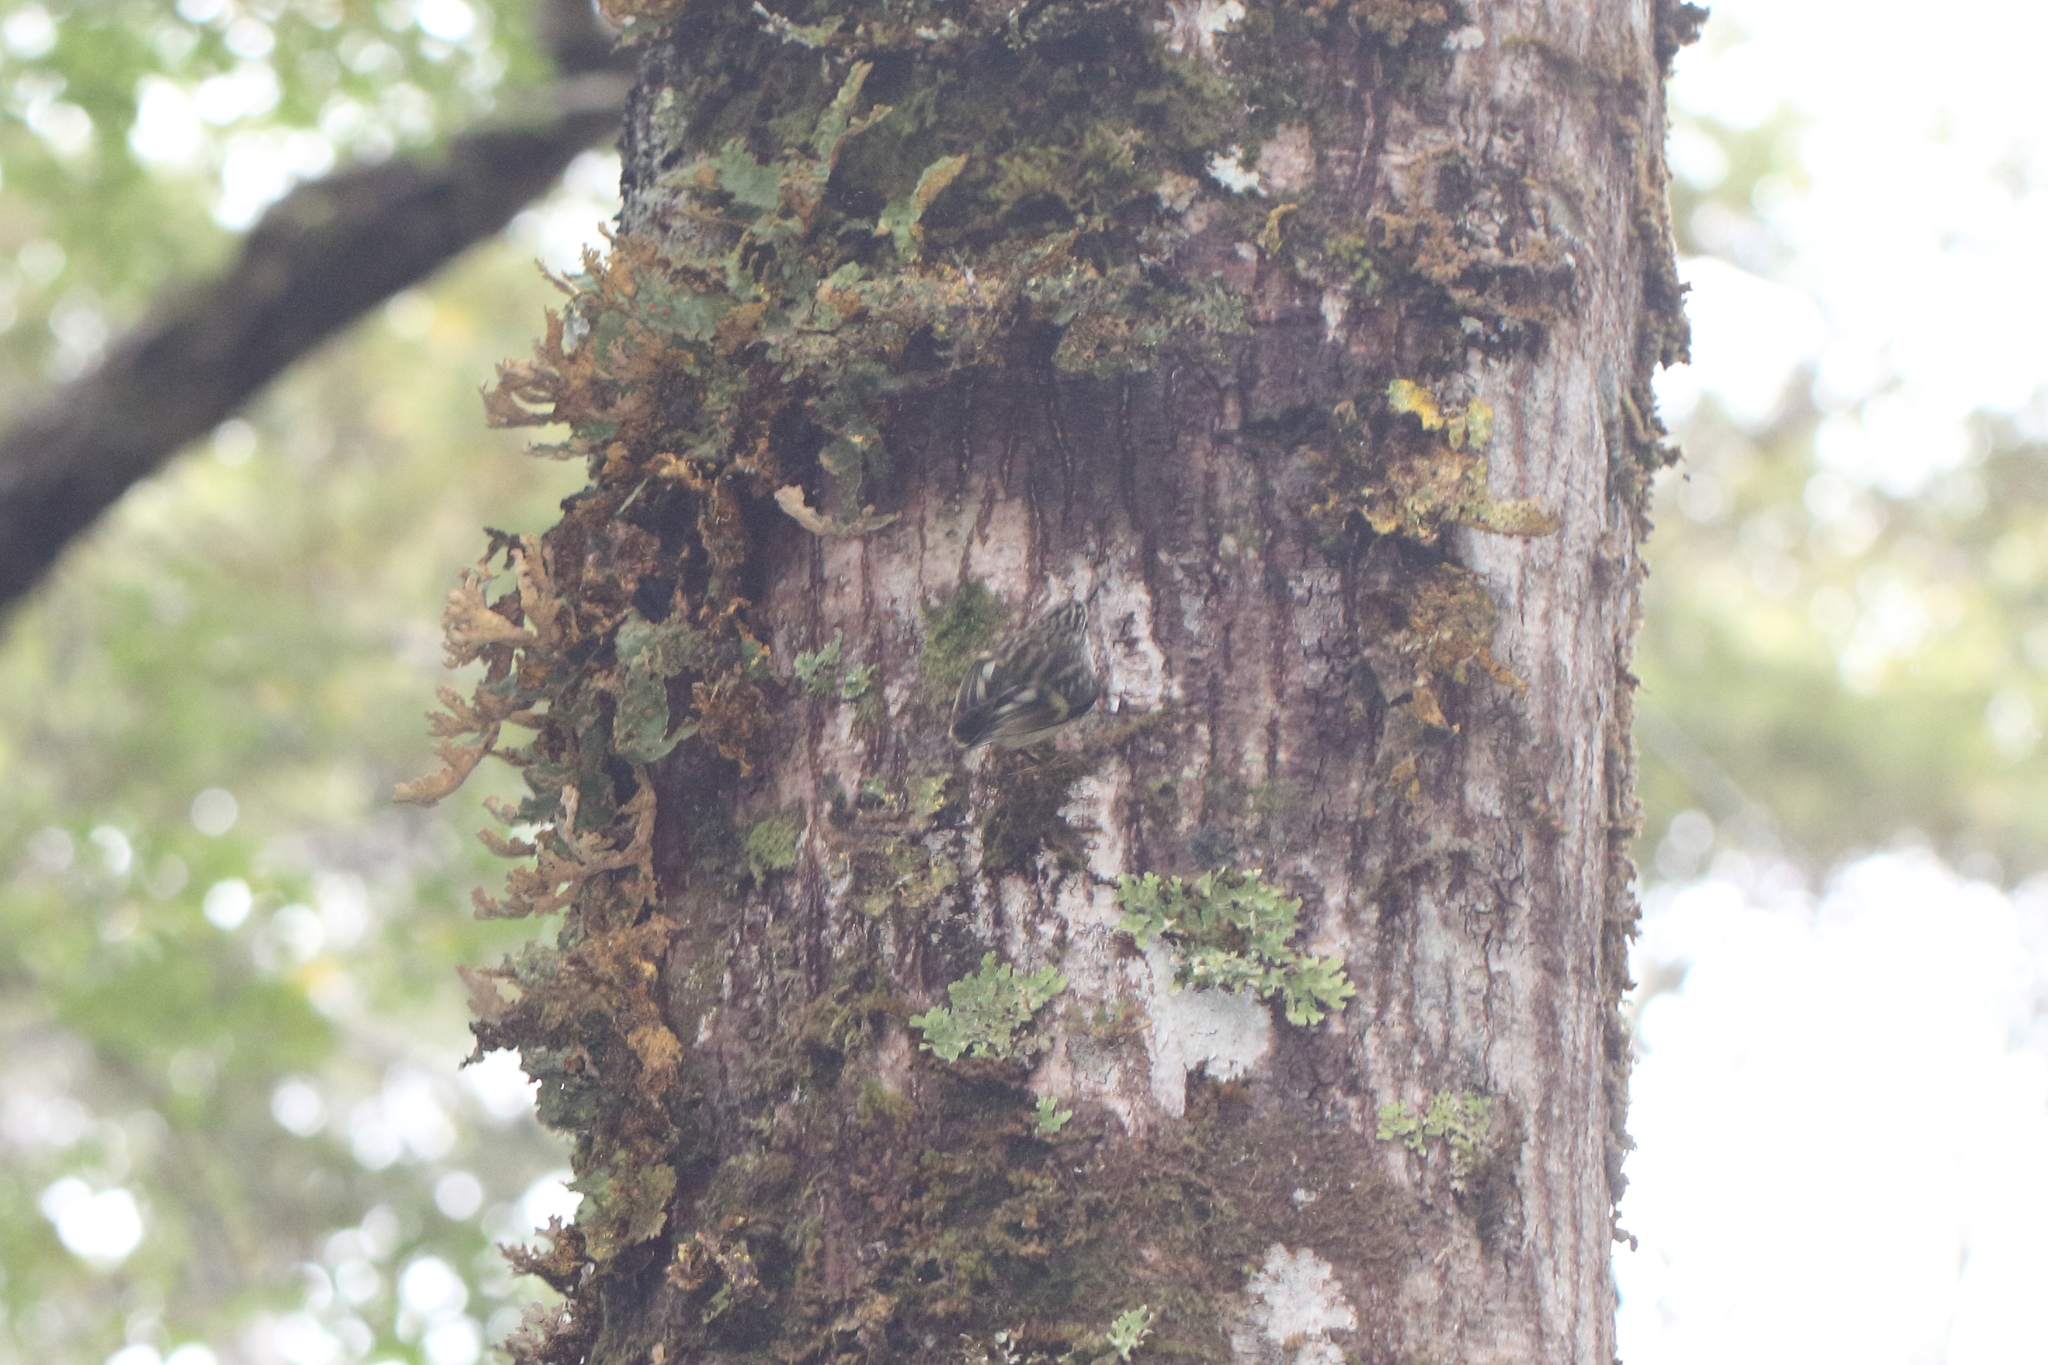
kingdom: Animalia
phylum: Chordata
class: Aves
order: Passeriformes
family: Acanthisittidae
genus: Acanthisitta
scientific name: Acanthisitta chloris
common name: Rifleman
